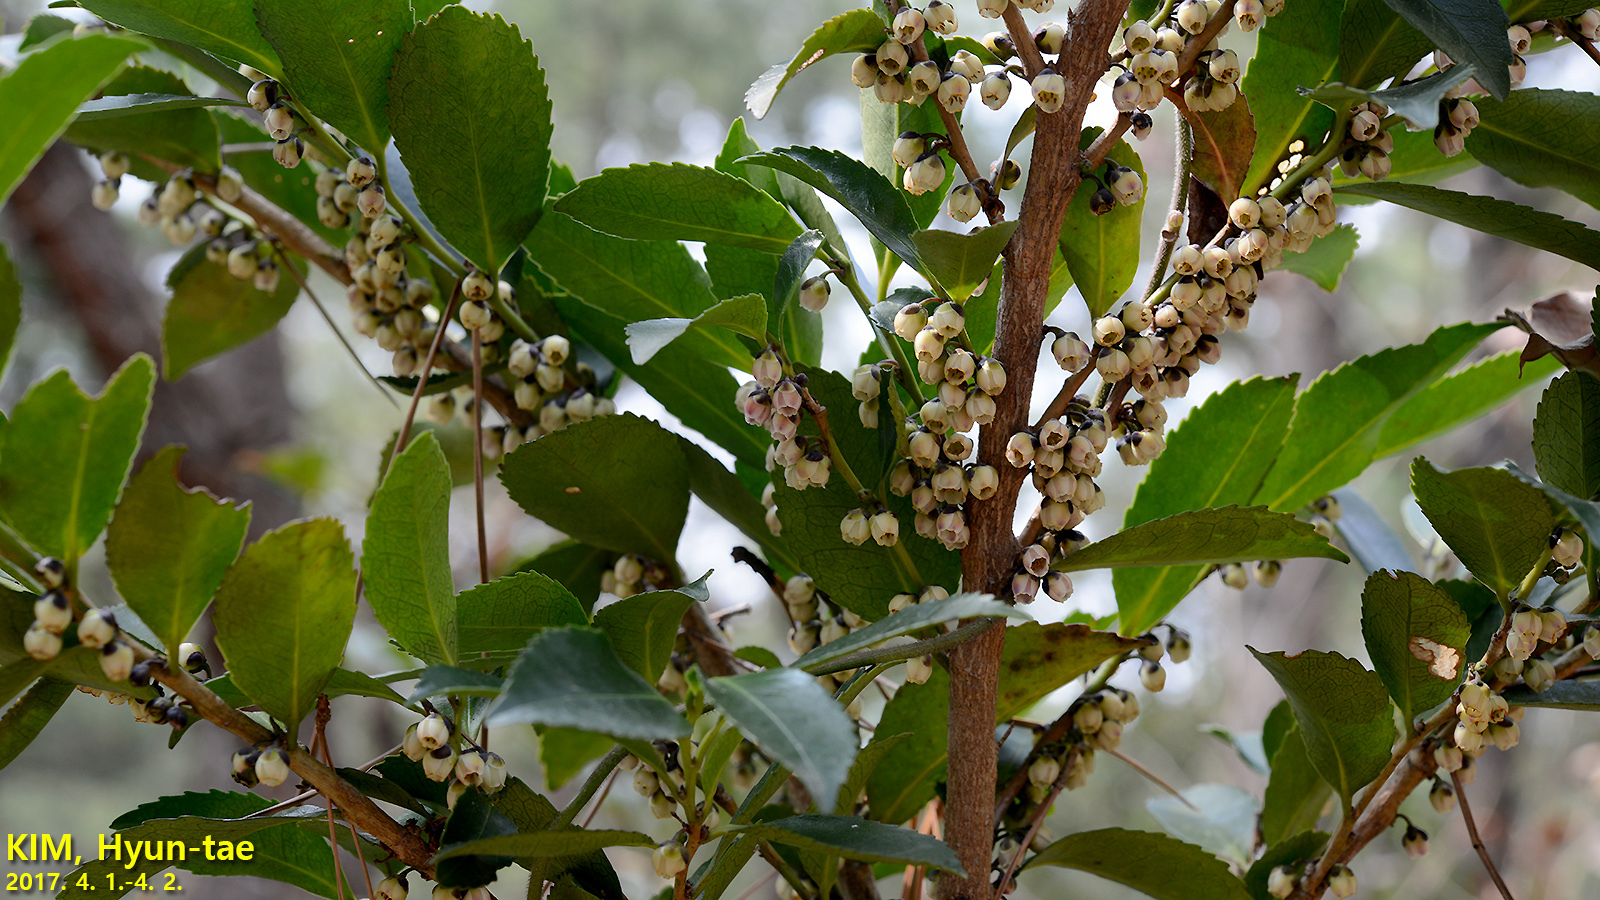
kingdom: Plantae
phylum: Tracheophyta
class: Magnoliopsida
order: Ericales
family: Pentaphylacaceae
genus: Eurya
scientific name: Eurya japonica
